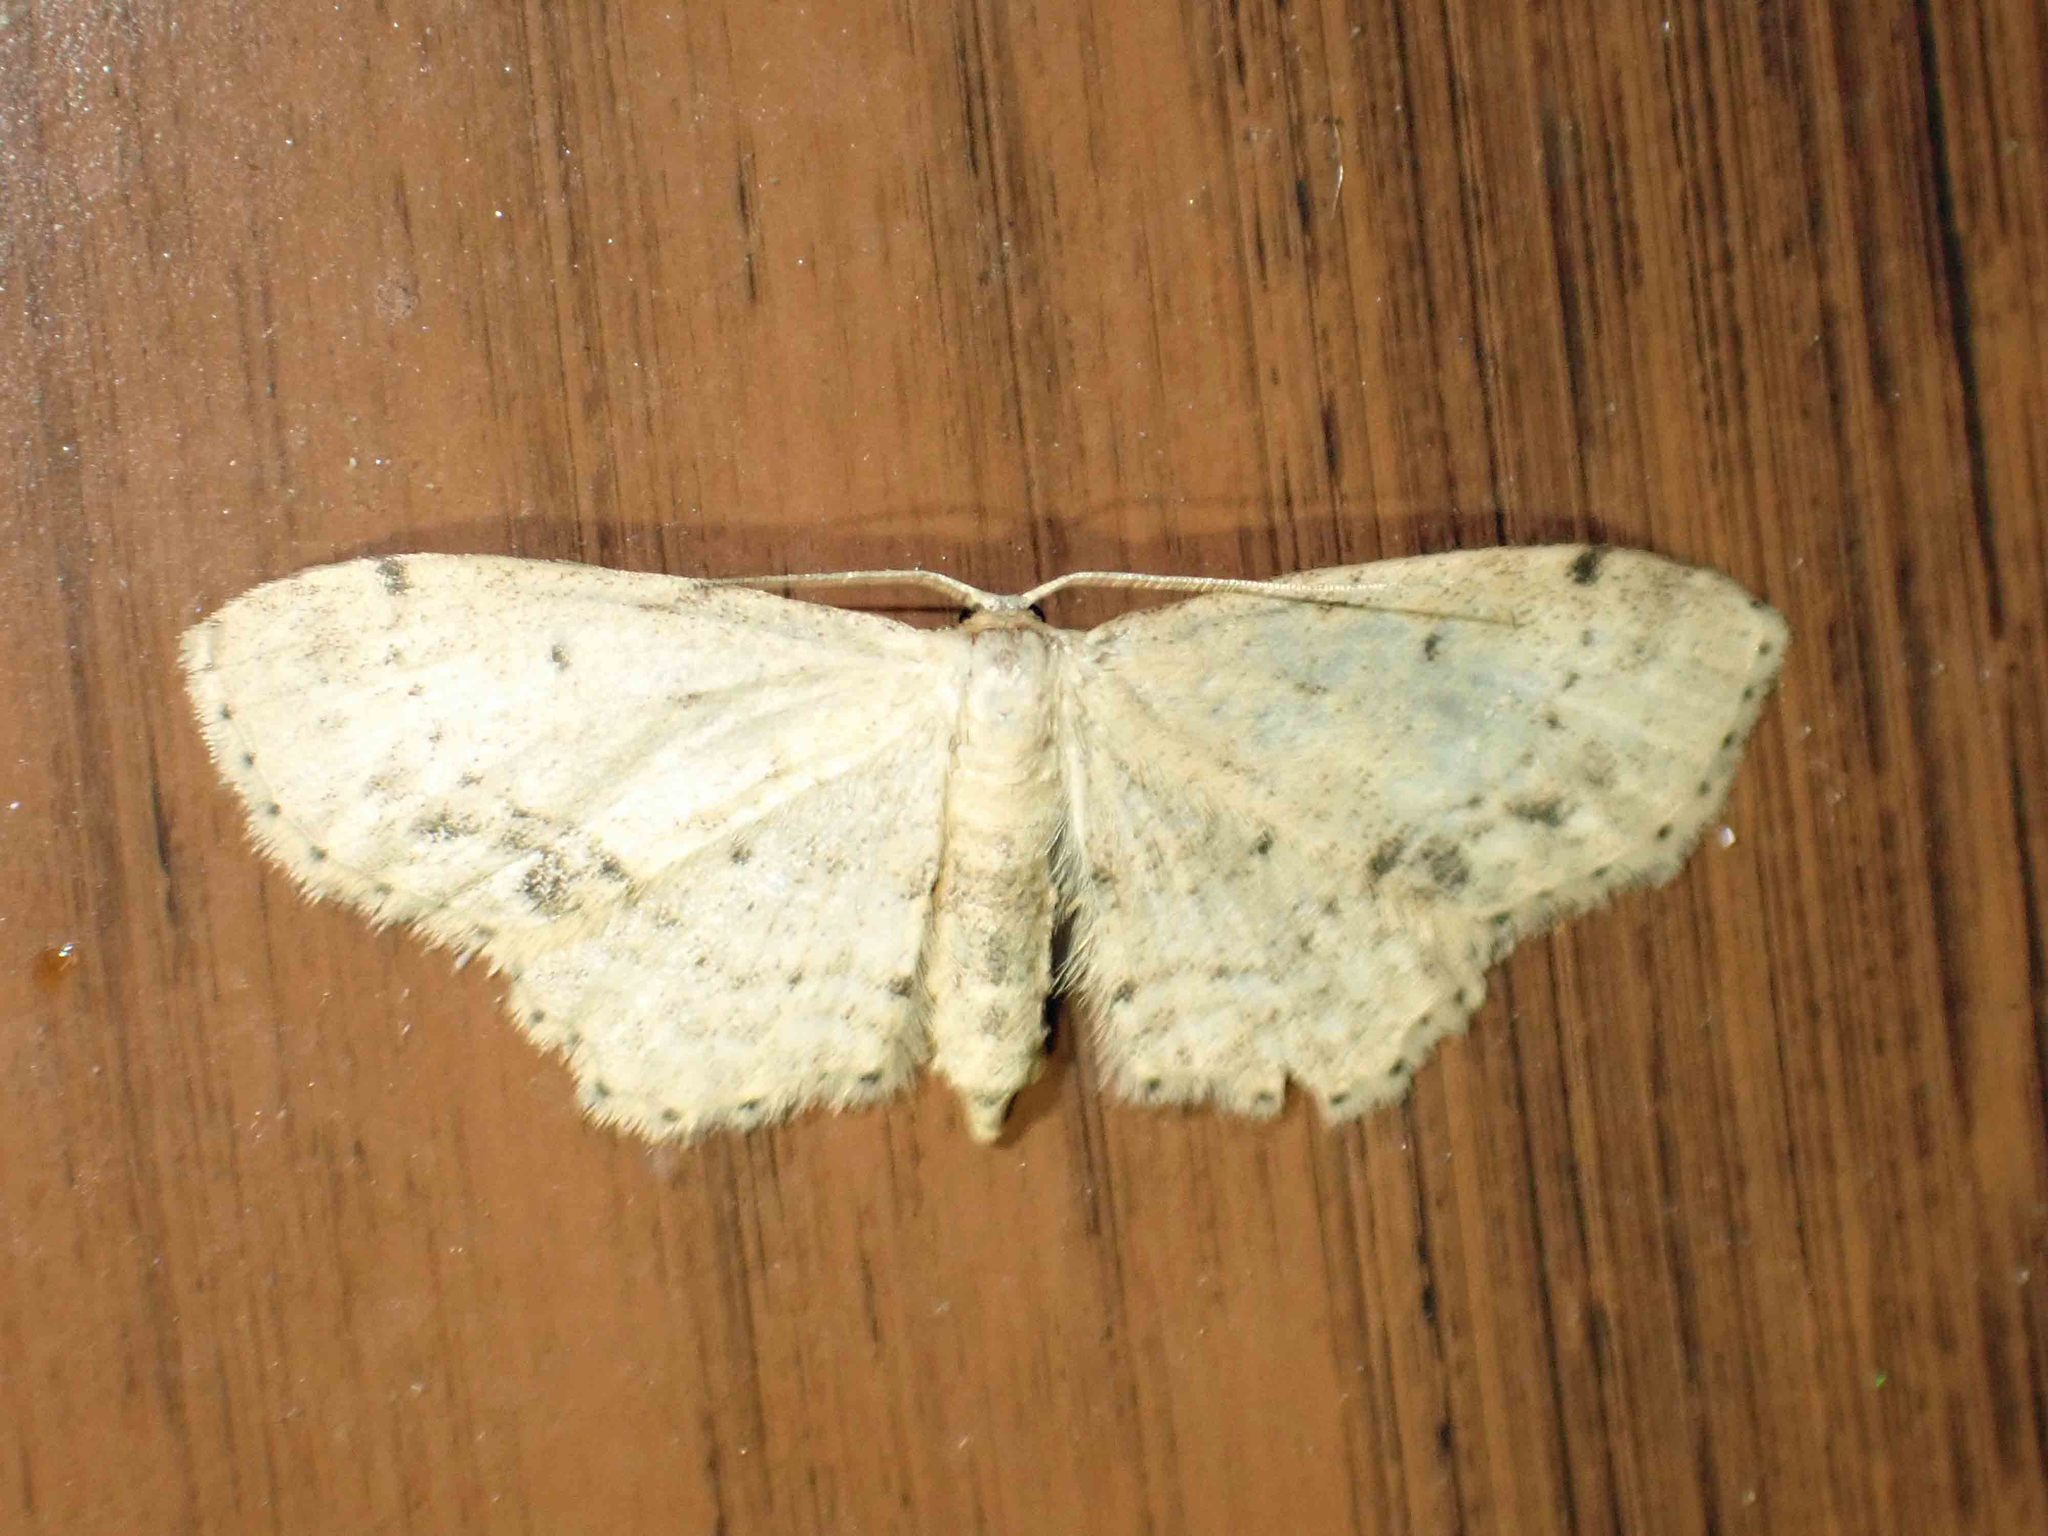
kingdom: Animalia
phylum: Arthropoda
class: Insecta
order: Lepidoptera
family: Geometridae
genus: Idaea
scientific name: Idaea dimidiata
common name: Single-dotted wave
